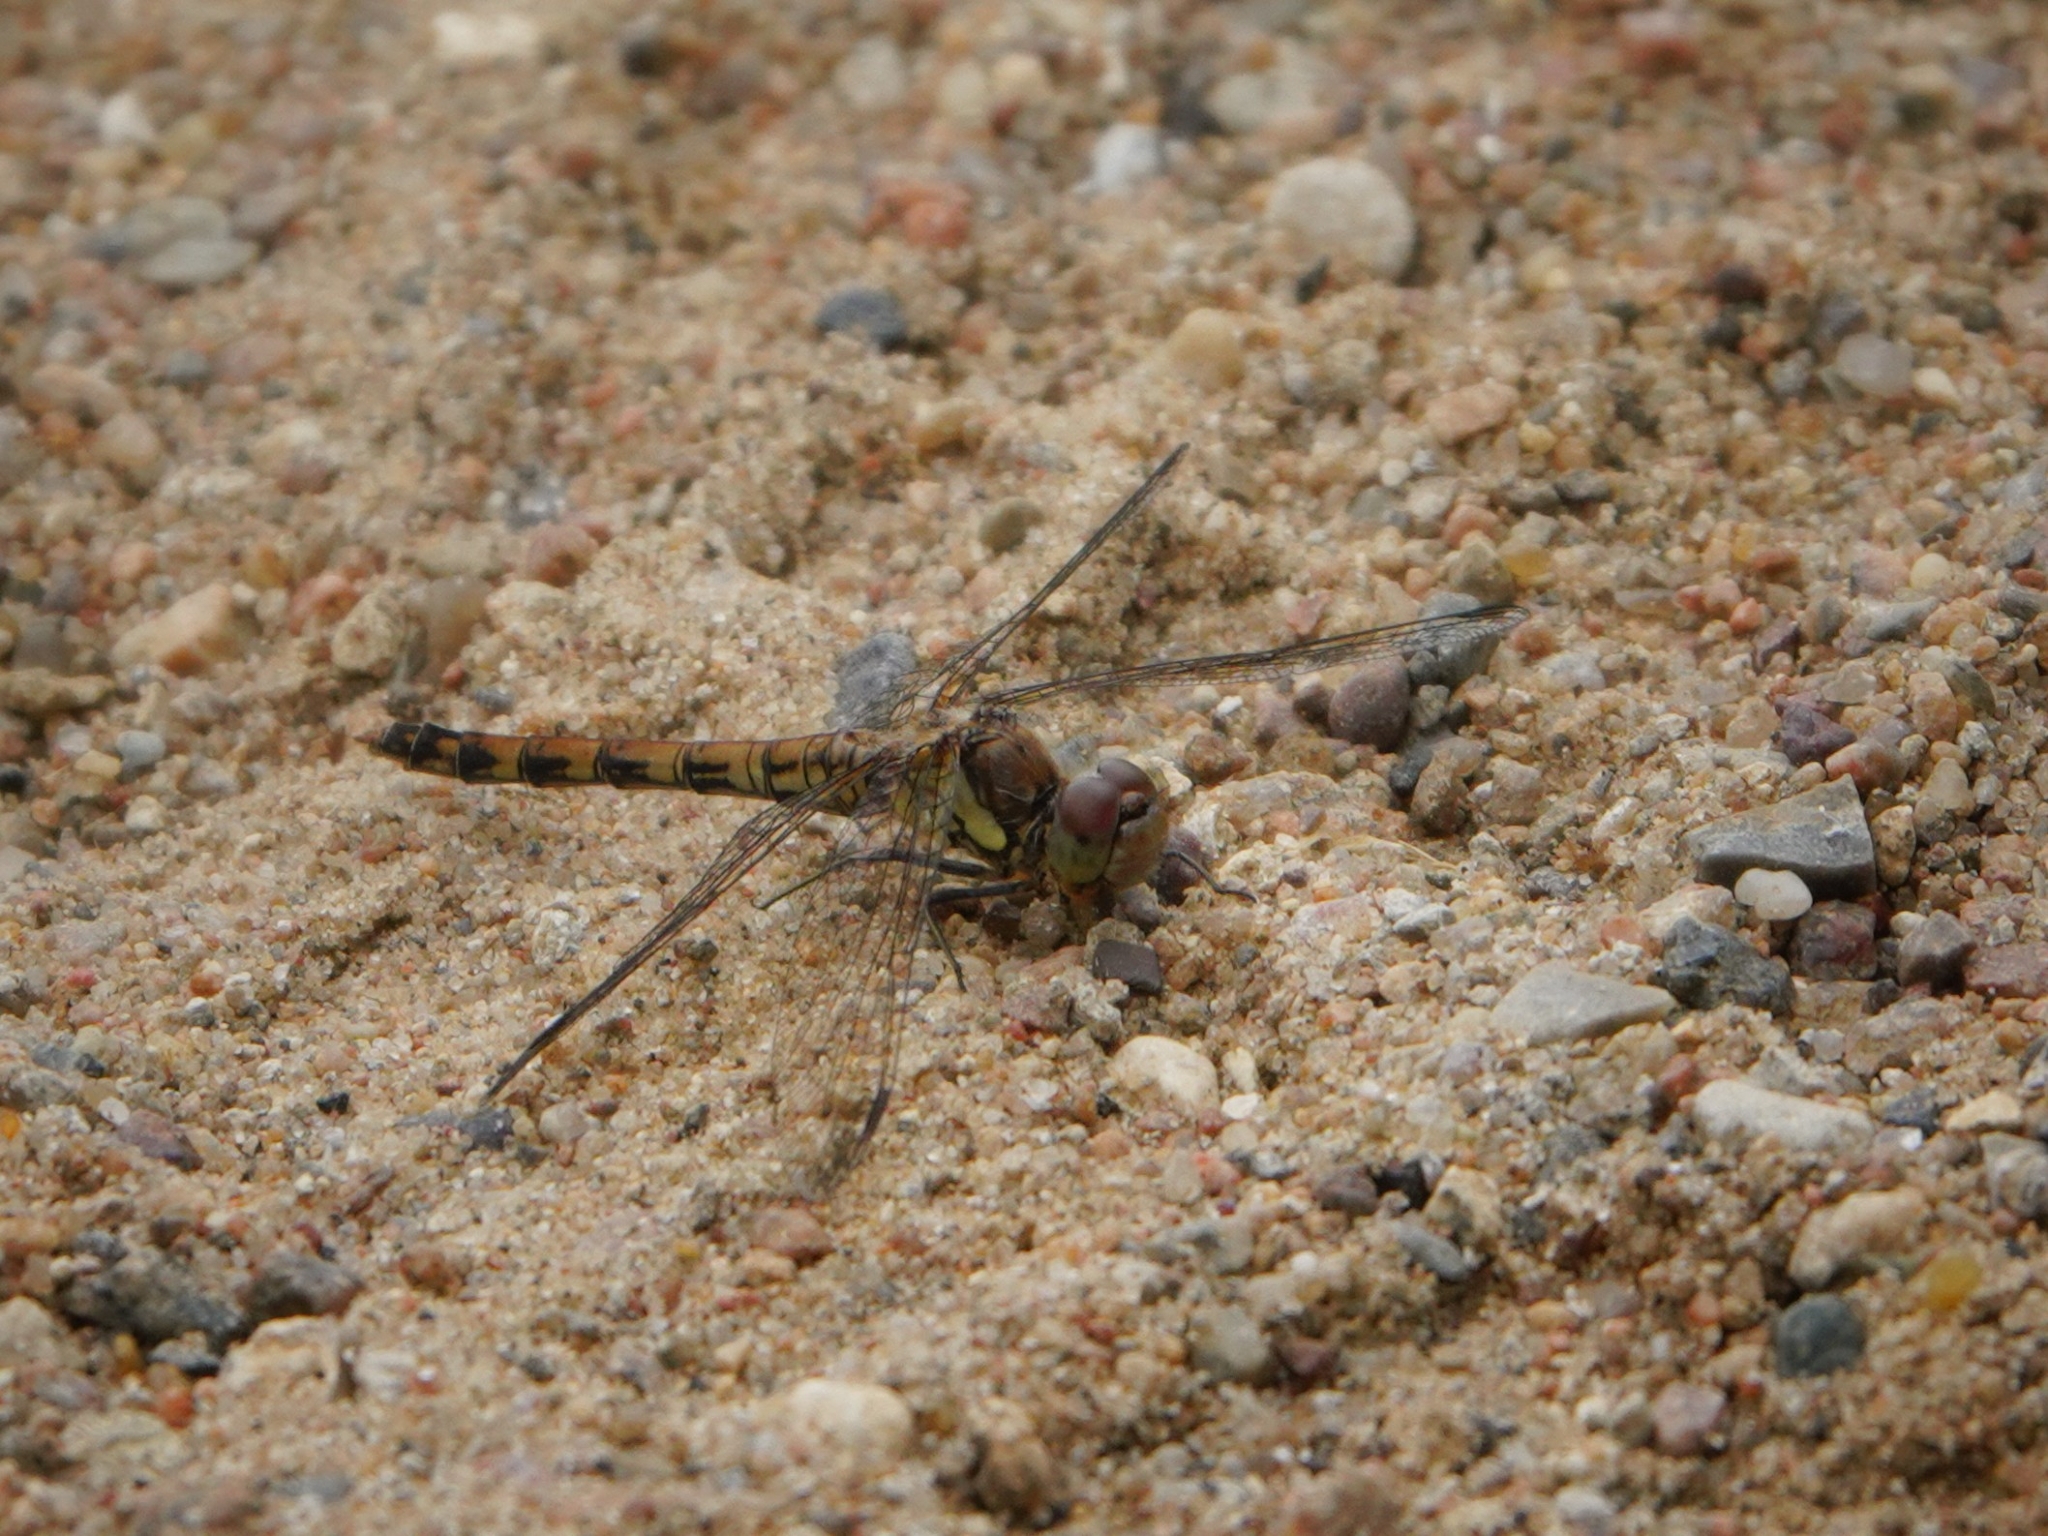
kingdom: Animalia
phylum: Arthropoda
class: Insecta
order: Odonata
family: Libellulidae
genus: Sympetrum
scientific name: Sympetrum striolatum
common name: Common darter
